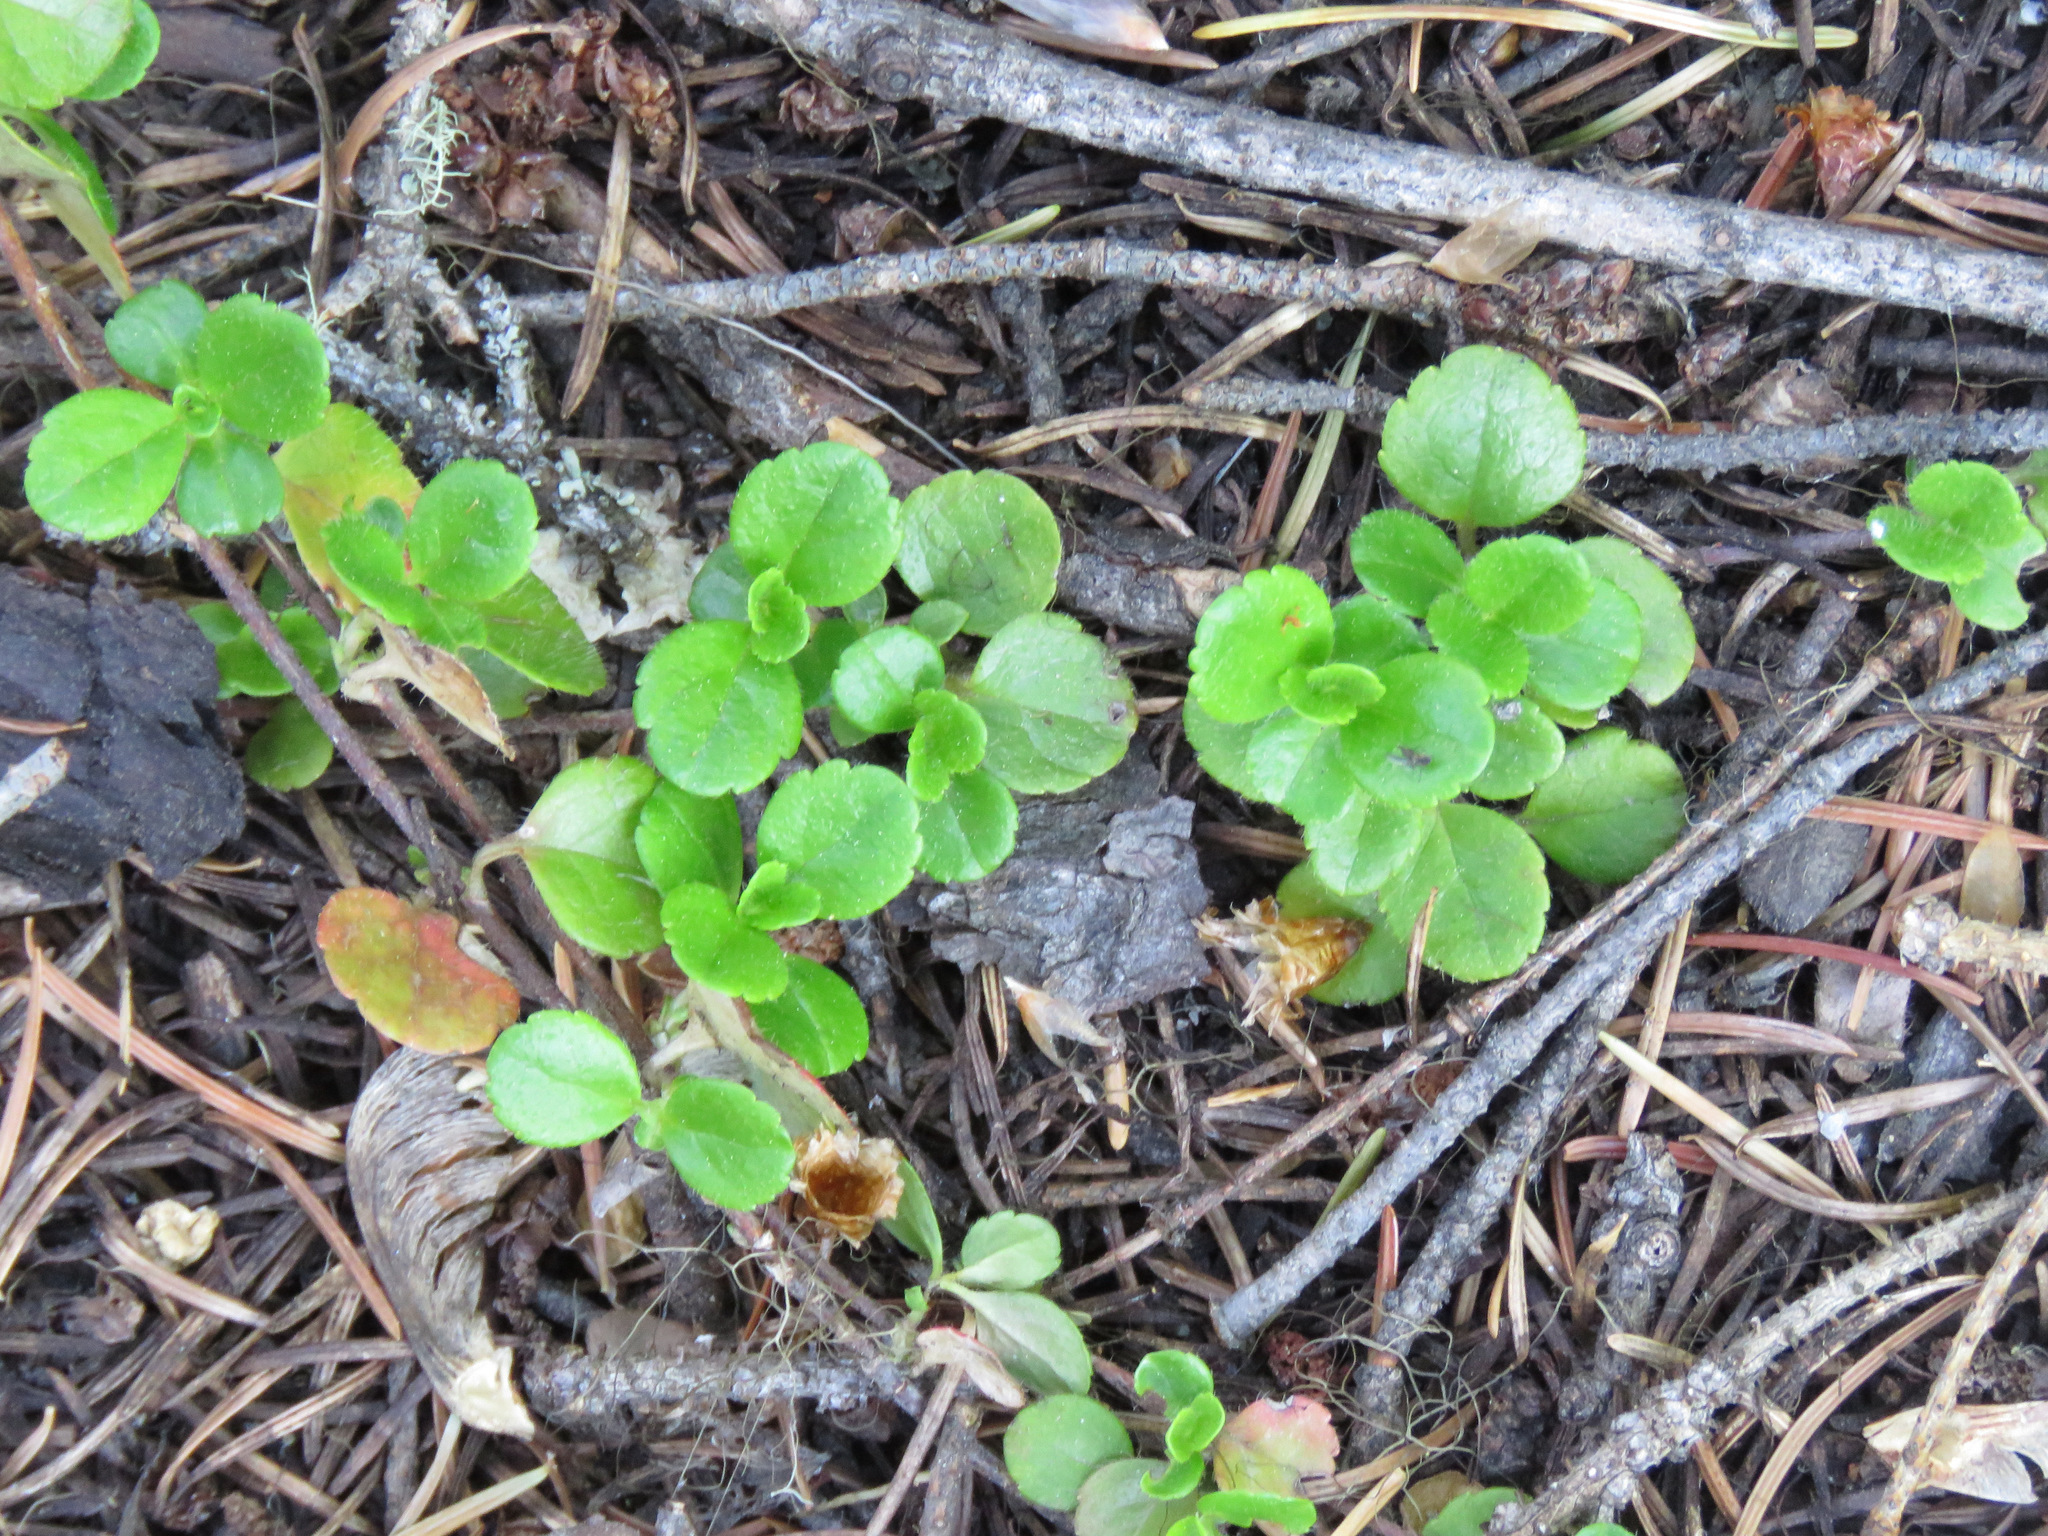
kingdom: Plantae
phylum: Tracheophyta
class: Magnoliopsida
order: Dipsacales
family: Caprifoliaceae
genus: Linnaea
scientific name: Linnaea borealis
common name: Twinflower
